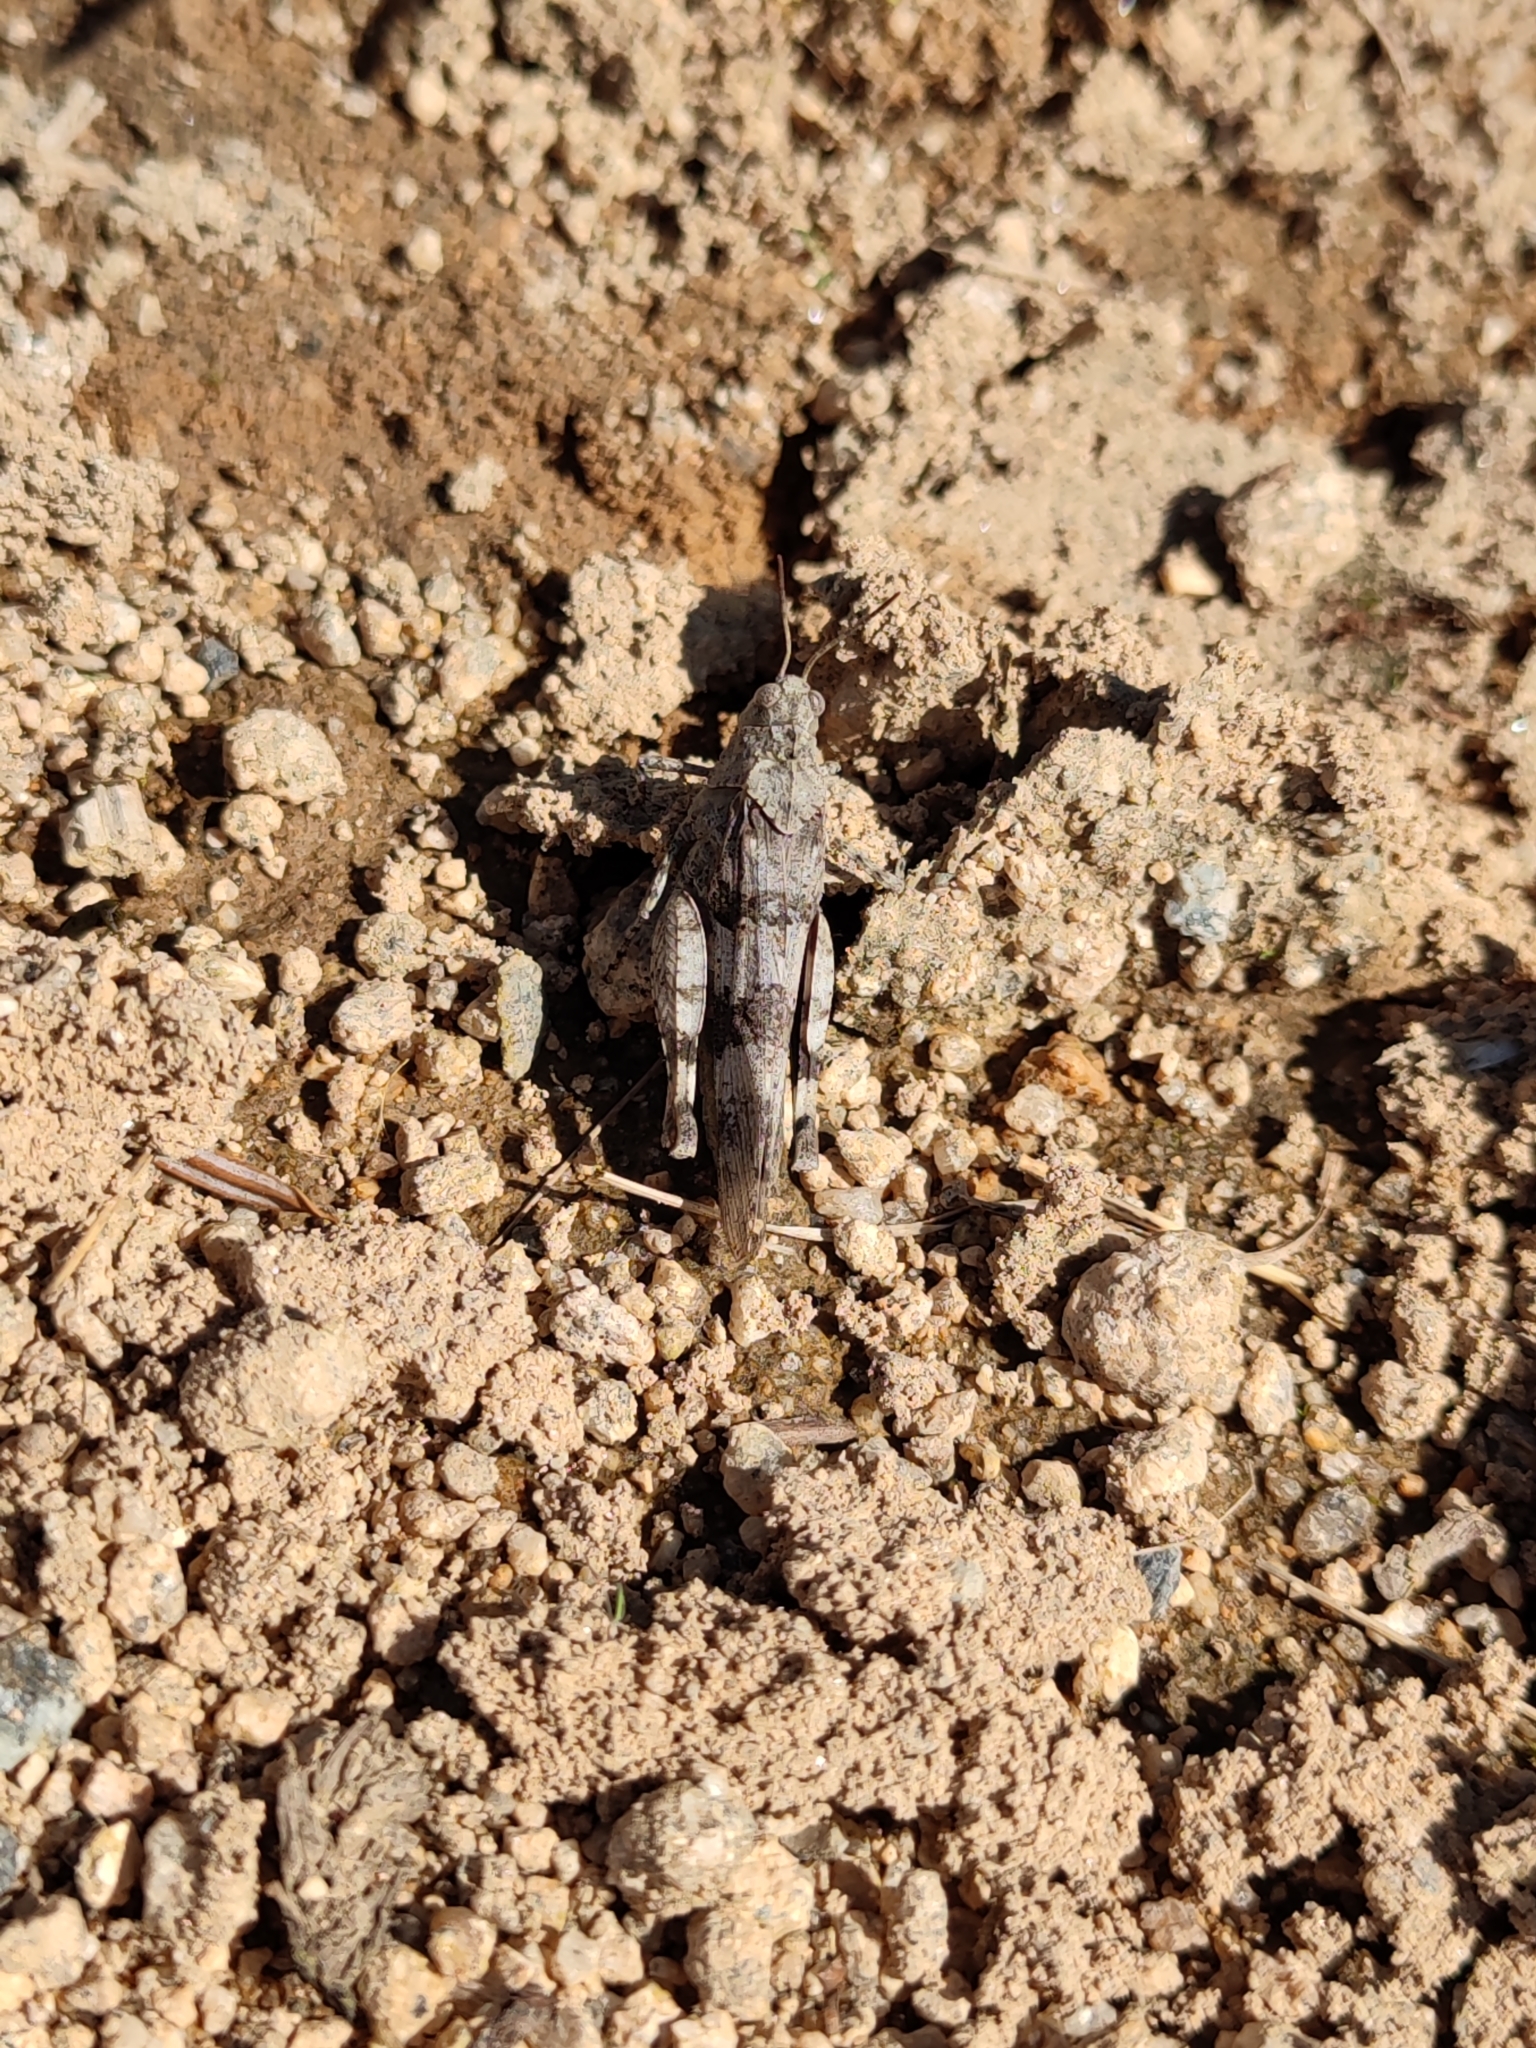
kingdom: Animalia
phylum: Arthropoda
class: Insecta
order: Orthoptera
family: Acrididae
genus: Oedipoda
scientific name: Oedipoda caerulescens
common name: Blue-winged grasshopper
